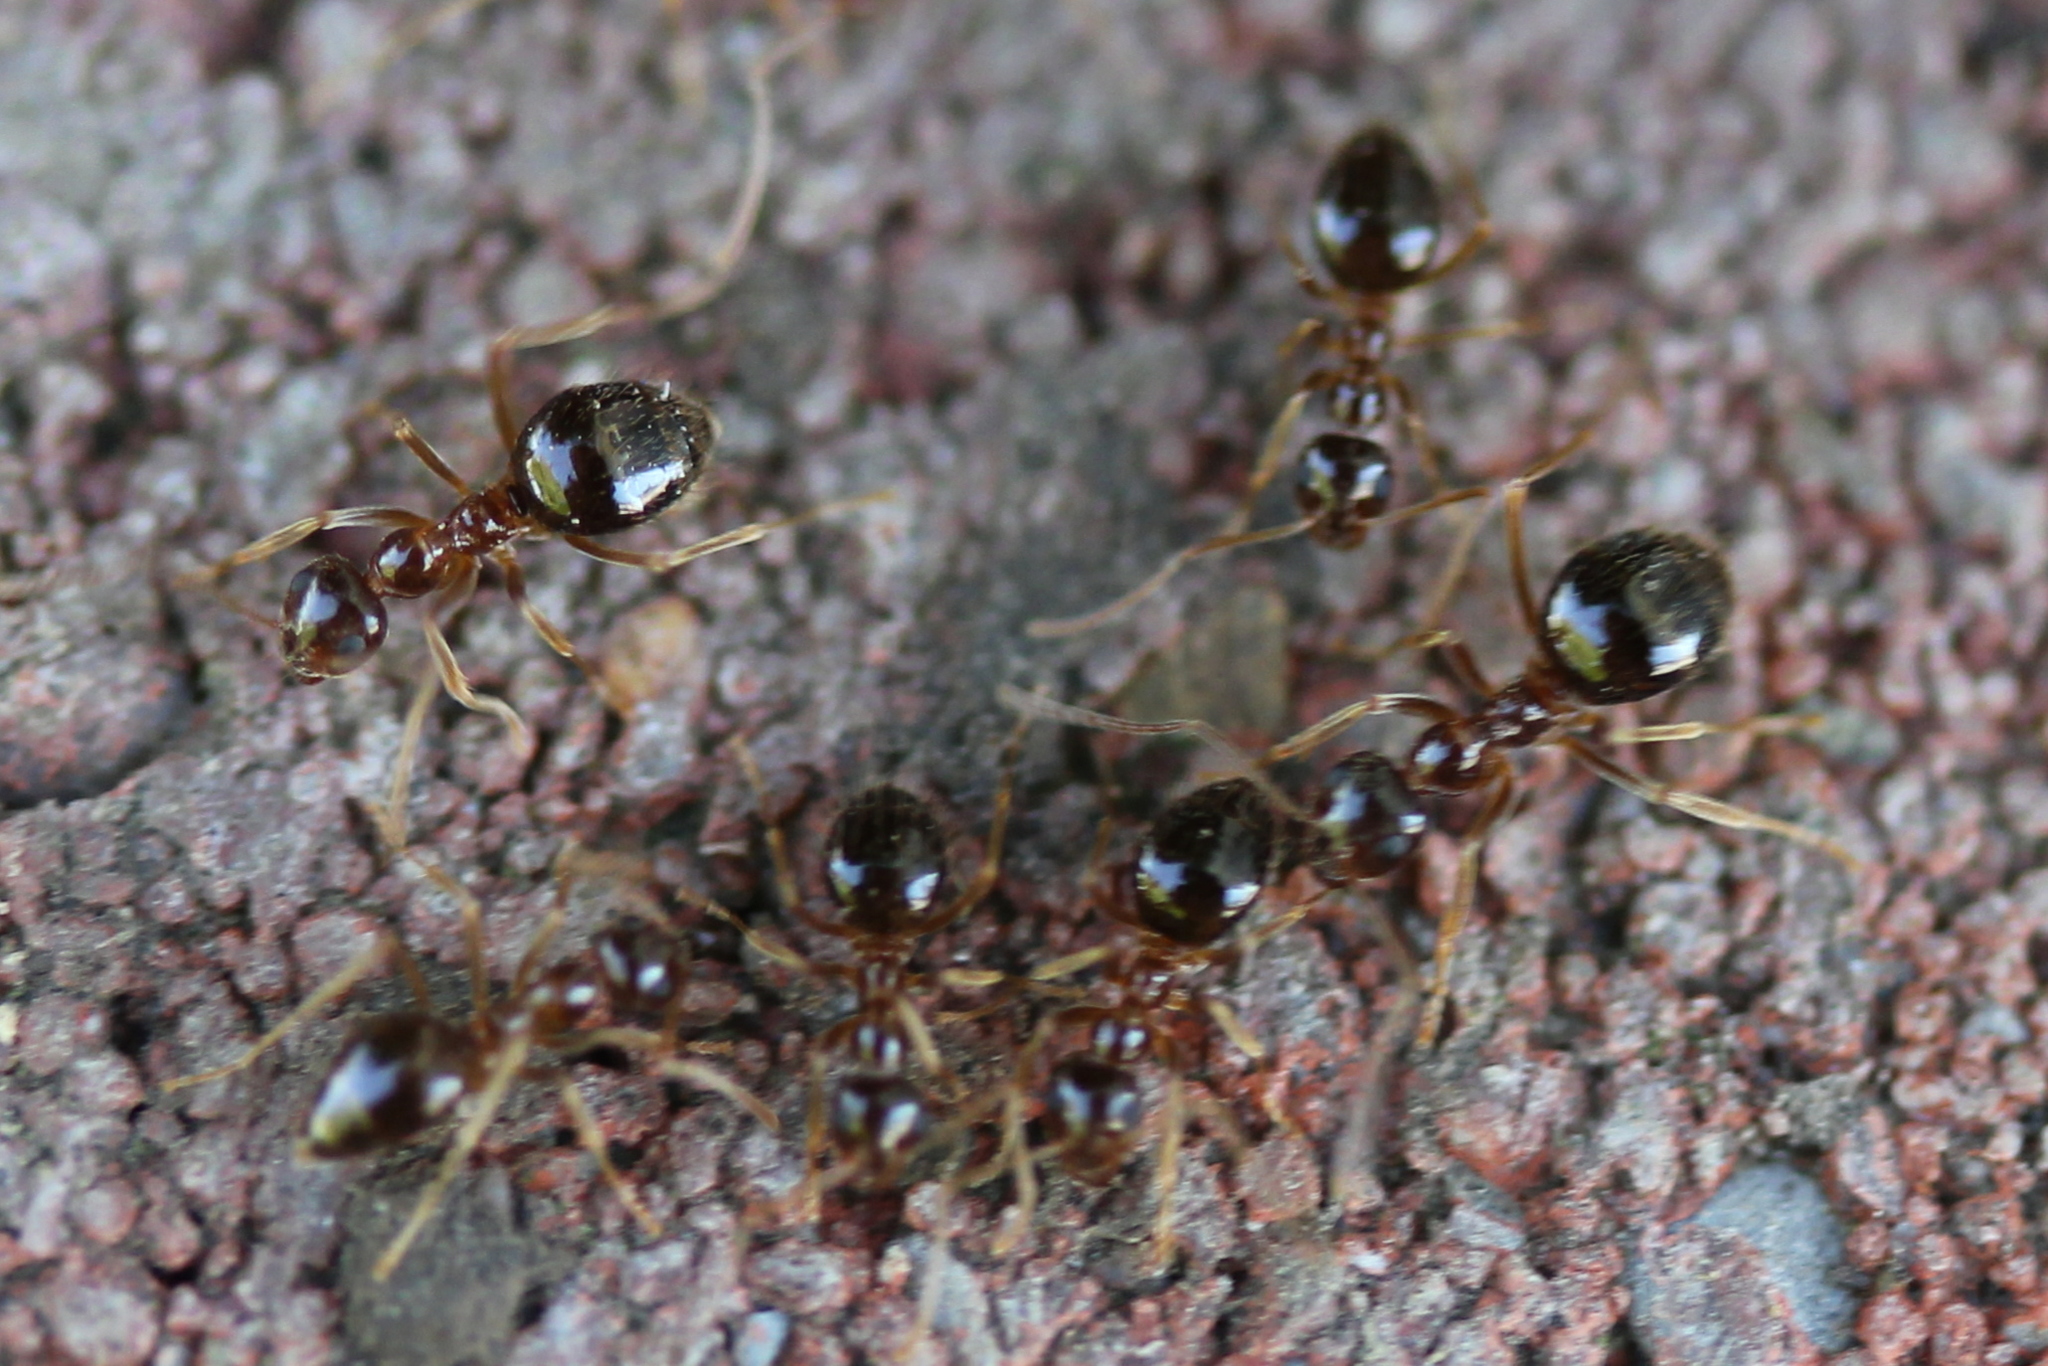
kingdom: Animalia
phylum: Arthropoda
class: Insecta
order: Hymenoptera
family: Formicidae
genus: Prenolepis
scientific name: Prenolepis imparis
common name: Small honey ant
